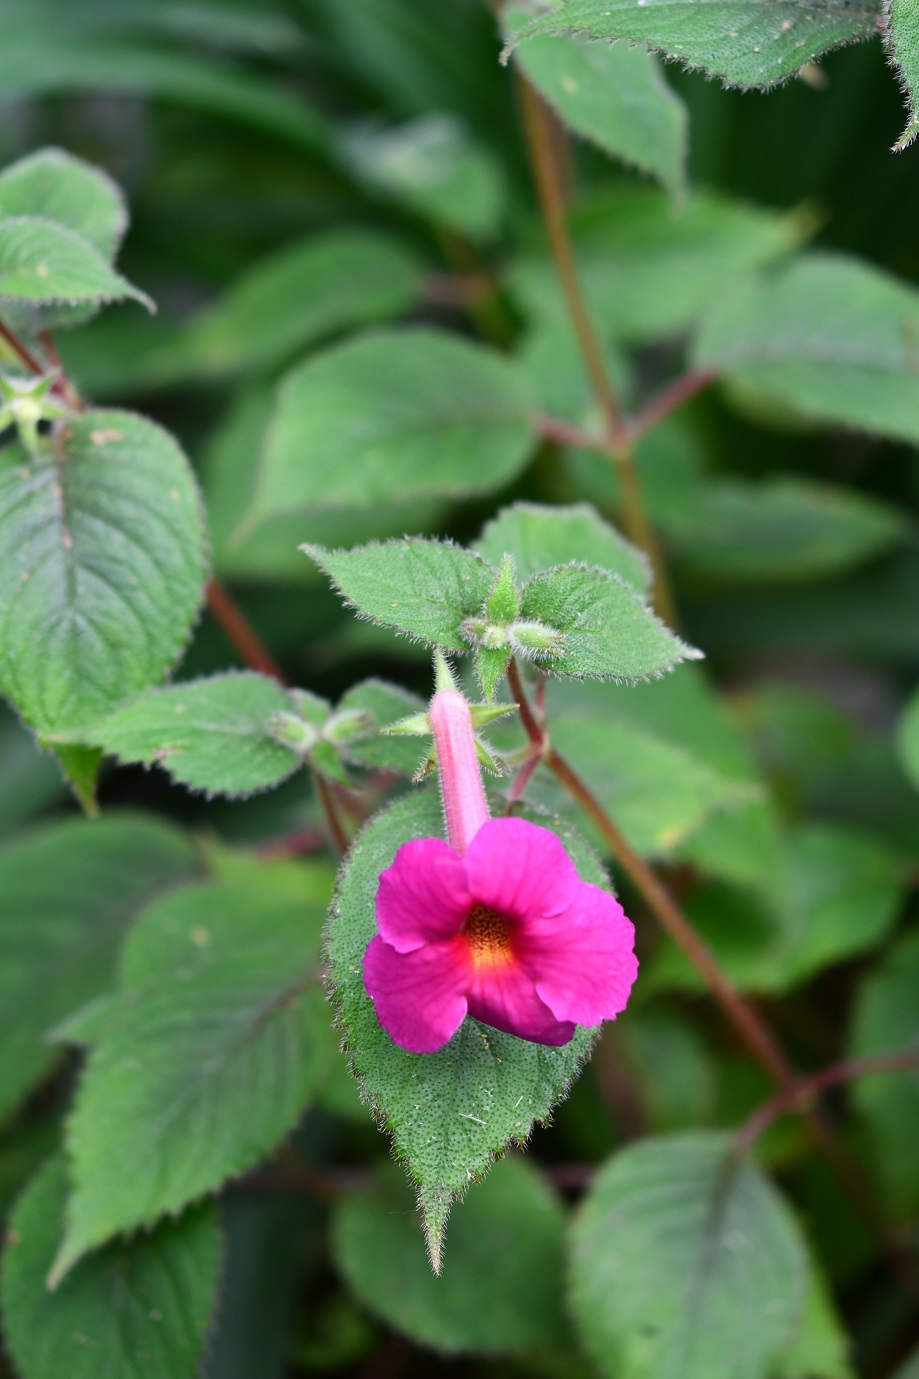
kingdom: Plantae
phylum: Tracheophyta
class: Magnoliopsida
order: Lamiales
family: Gesneriaceae
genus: Achimenes
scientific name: Achimenes skinneri
